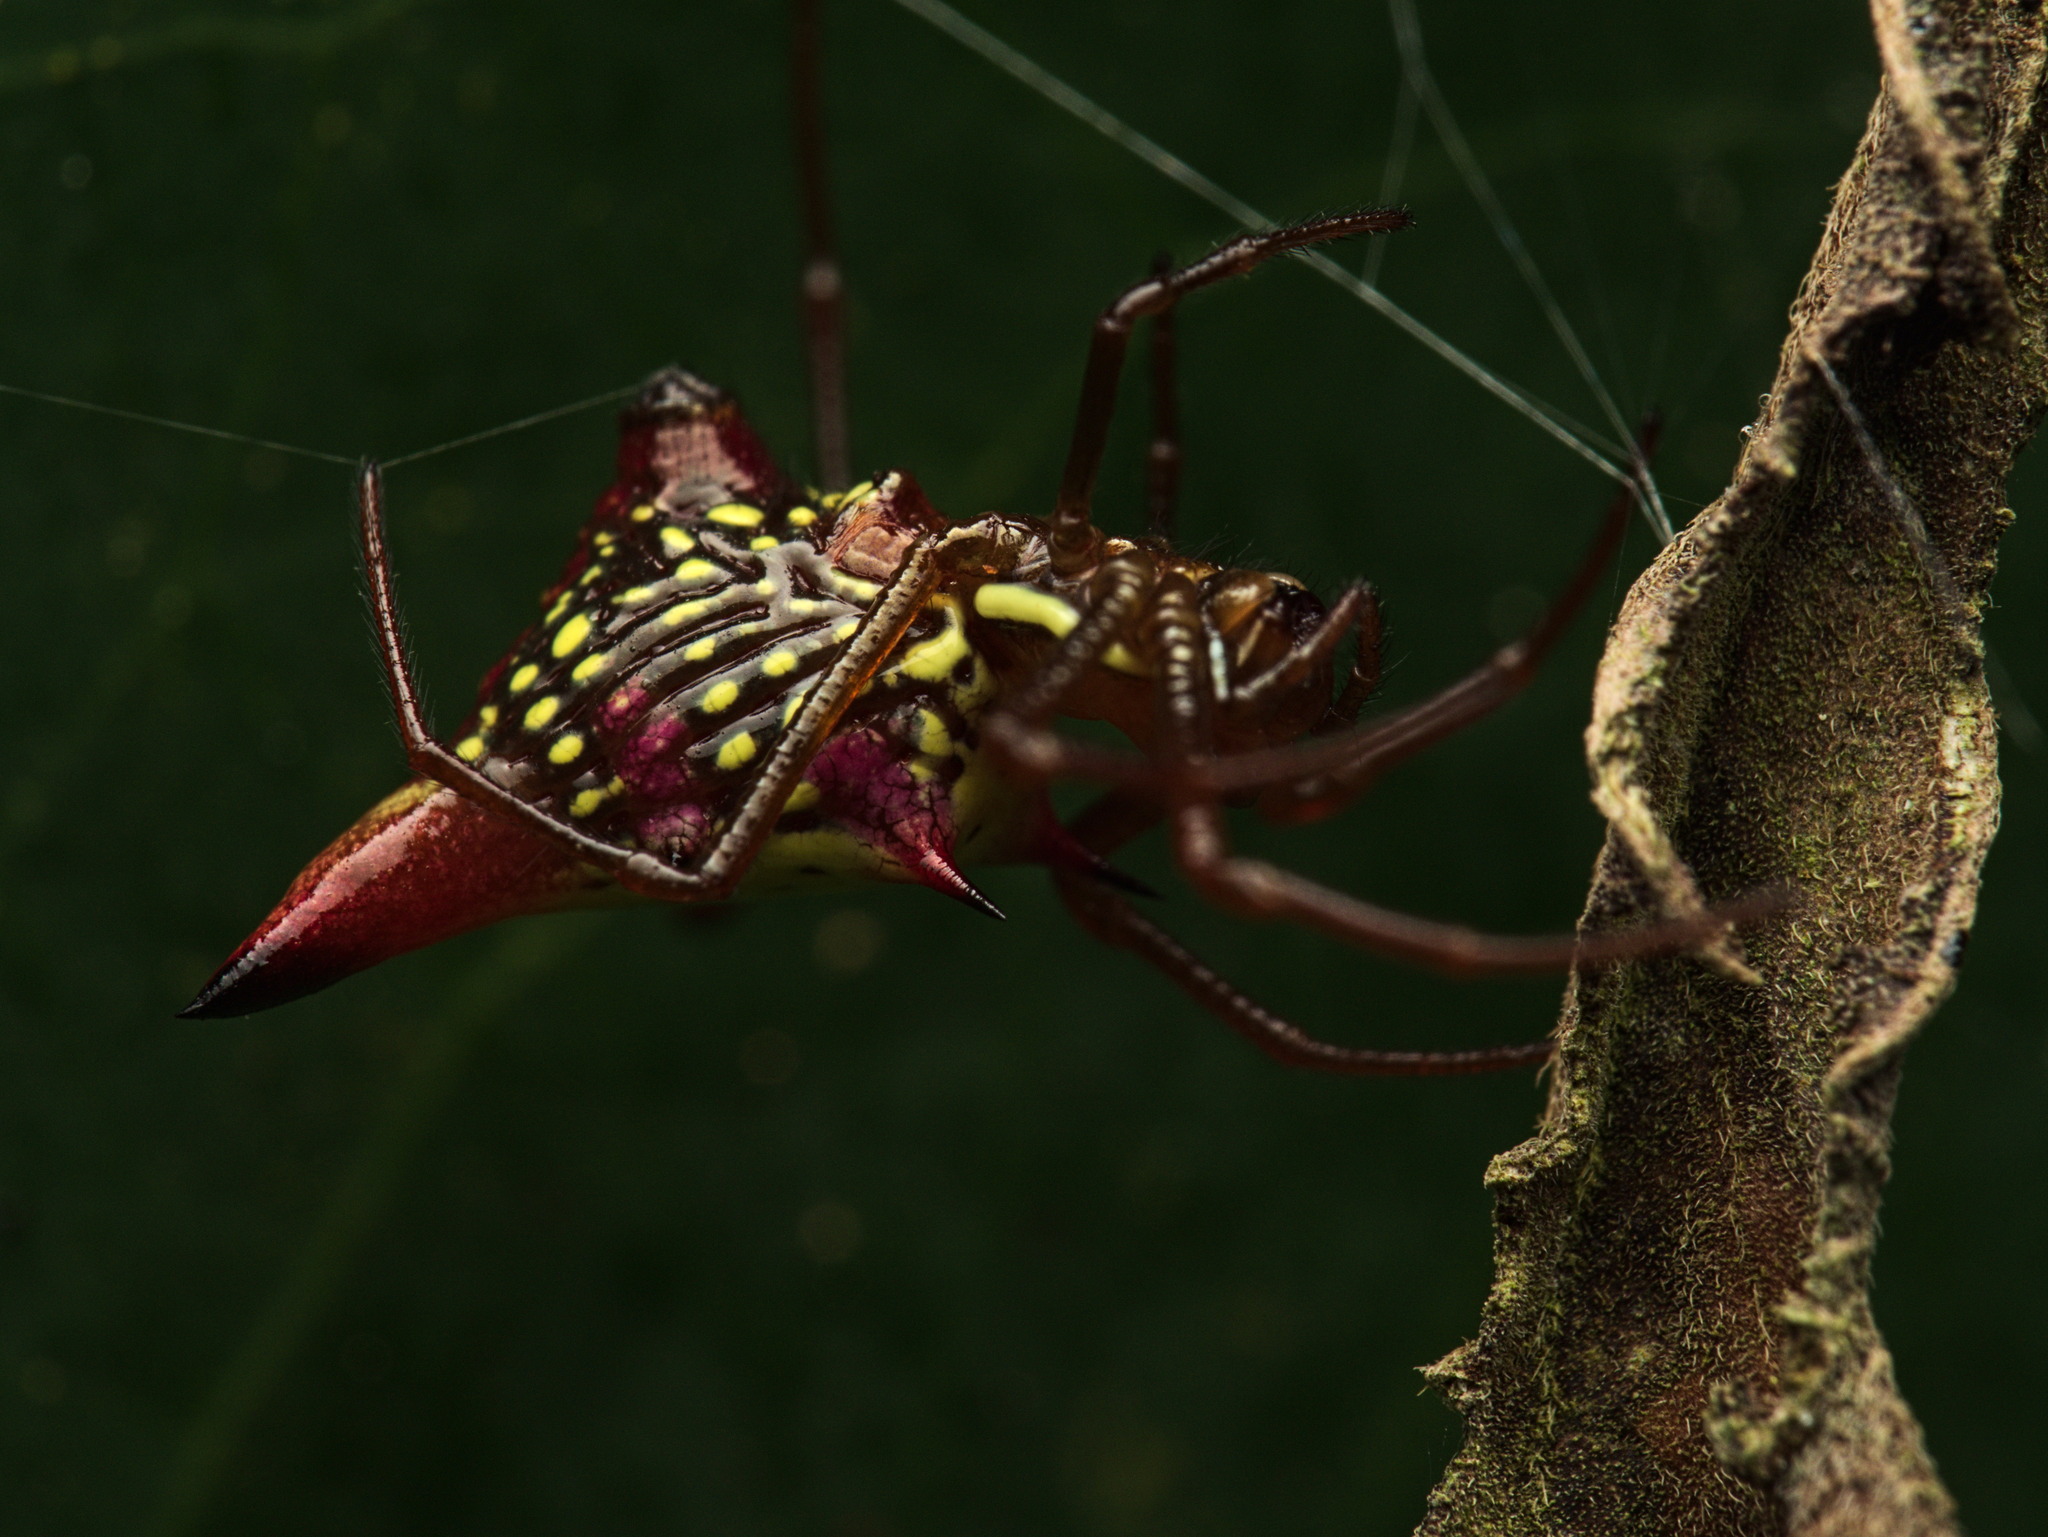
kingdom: Animalia
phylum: Arthropoda
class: Arachnida
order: Araneae
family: Araneidae
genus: Micrathena
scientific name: Micrathena sagittata
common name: Orb weavers
